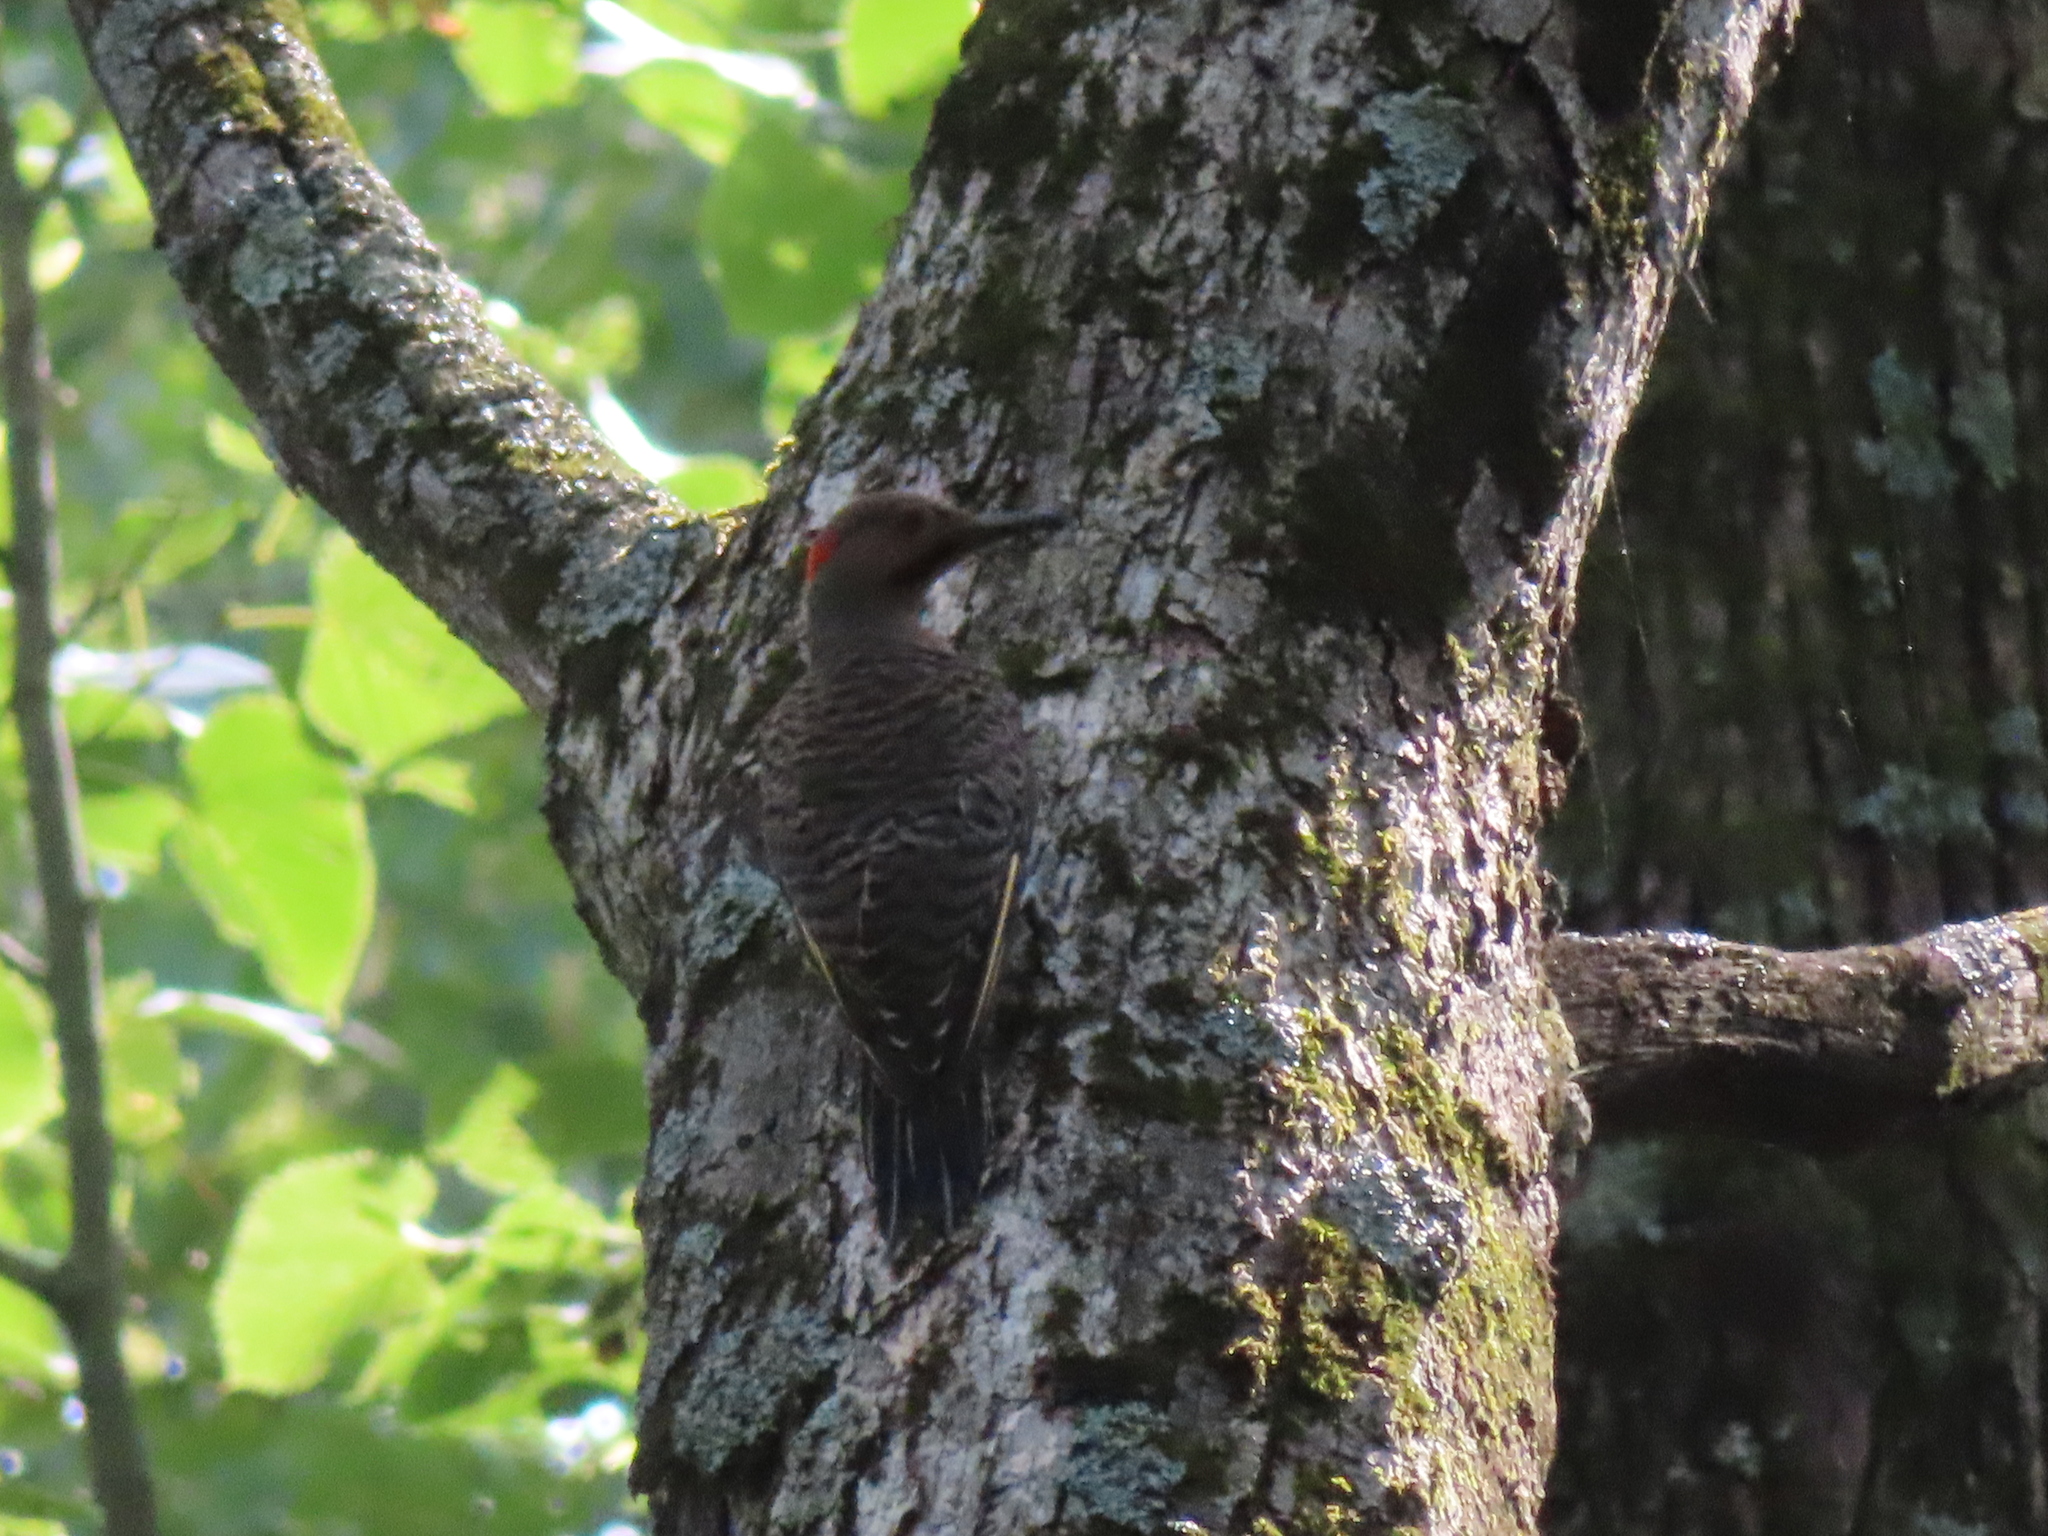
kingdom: Animalia
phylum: Chordata
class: Aves
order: Piciformes
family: Picidae
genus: Colaptes
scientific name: Colaptes auratus
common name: Northern flicker
